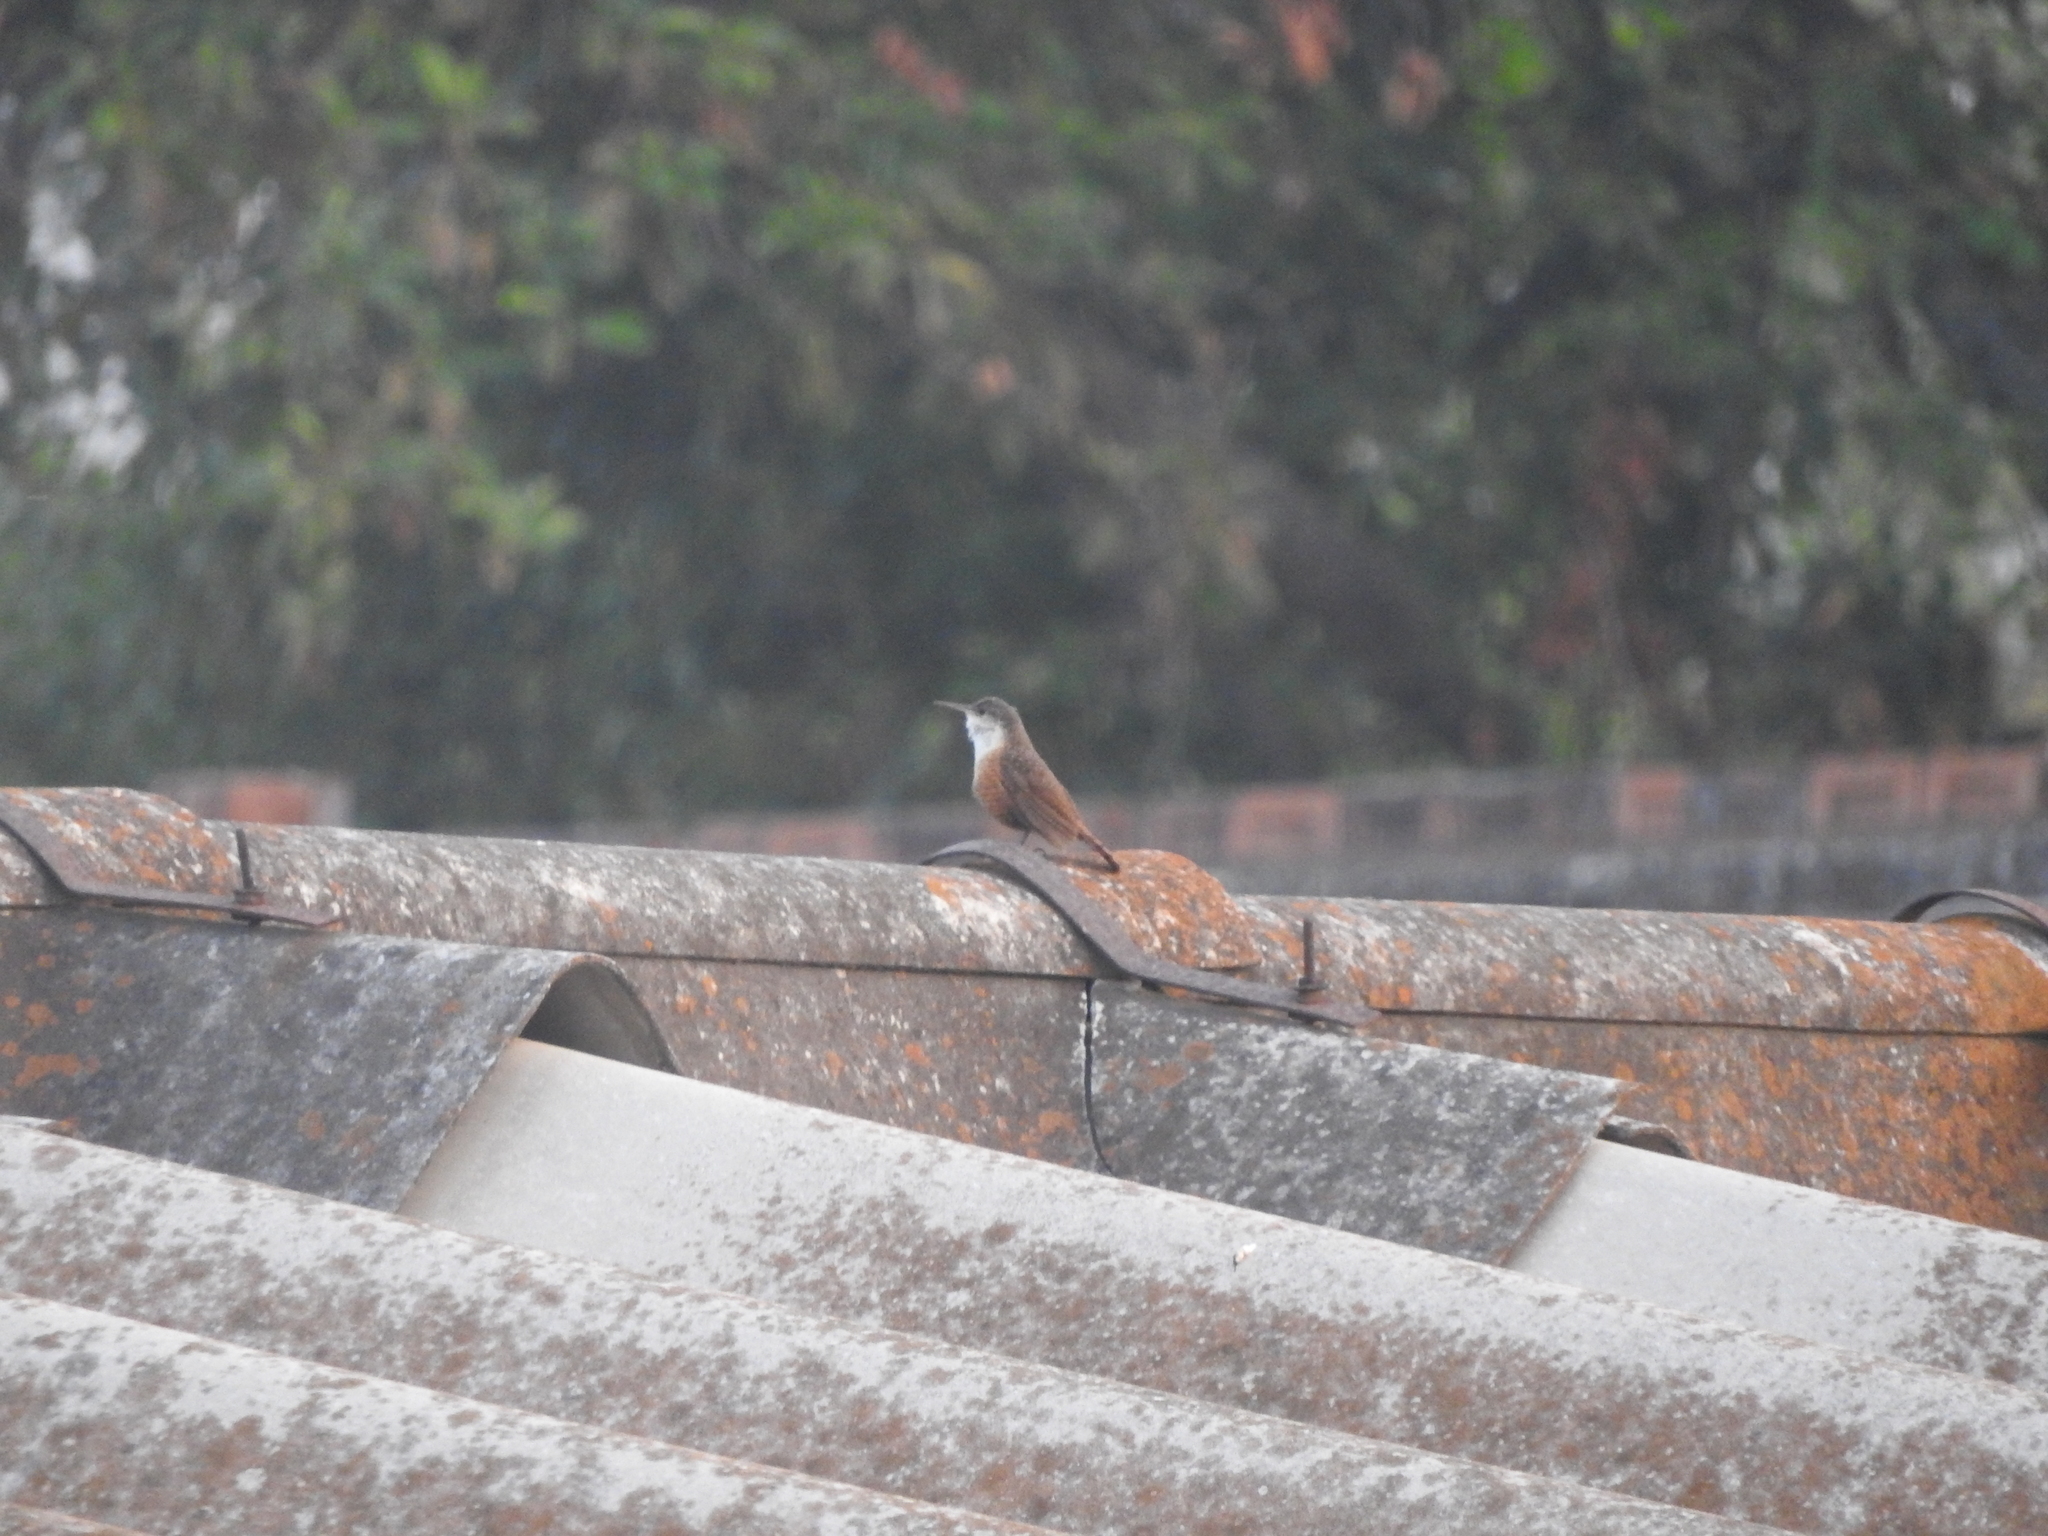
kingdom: Animalia
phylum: Chordata
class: Aves
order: Passeriformes
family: Troglodytidae
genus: Catherpes
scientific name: Catherpes mexicanus
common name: Canyon wren
